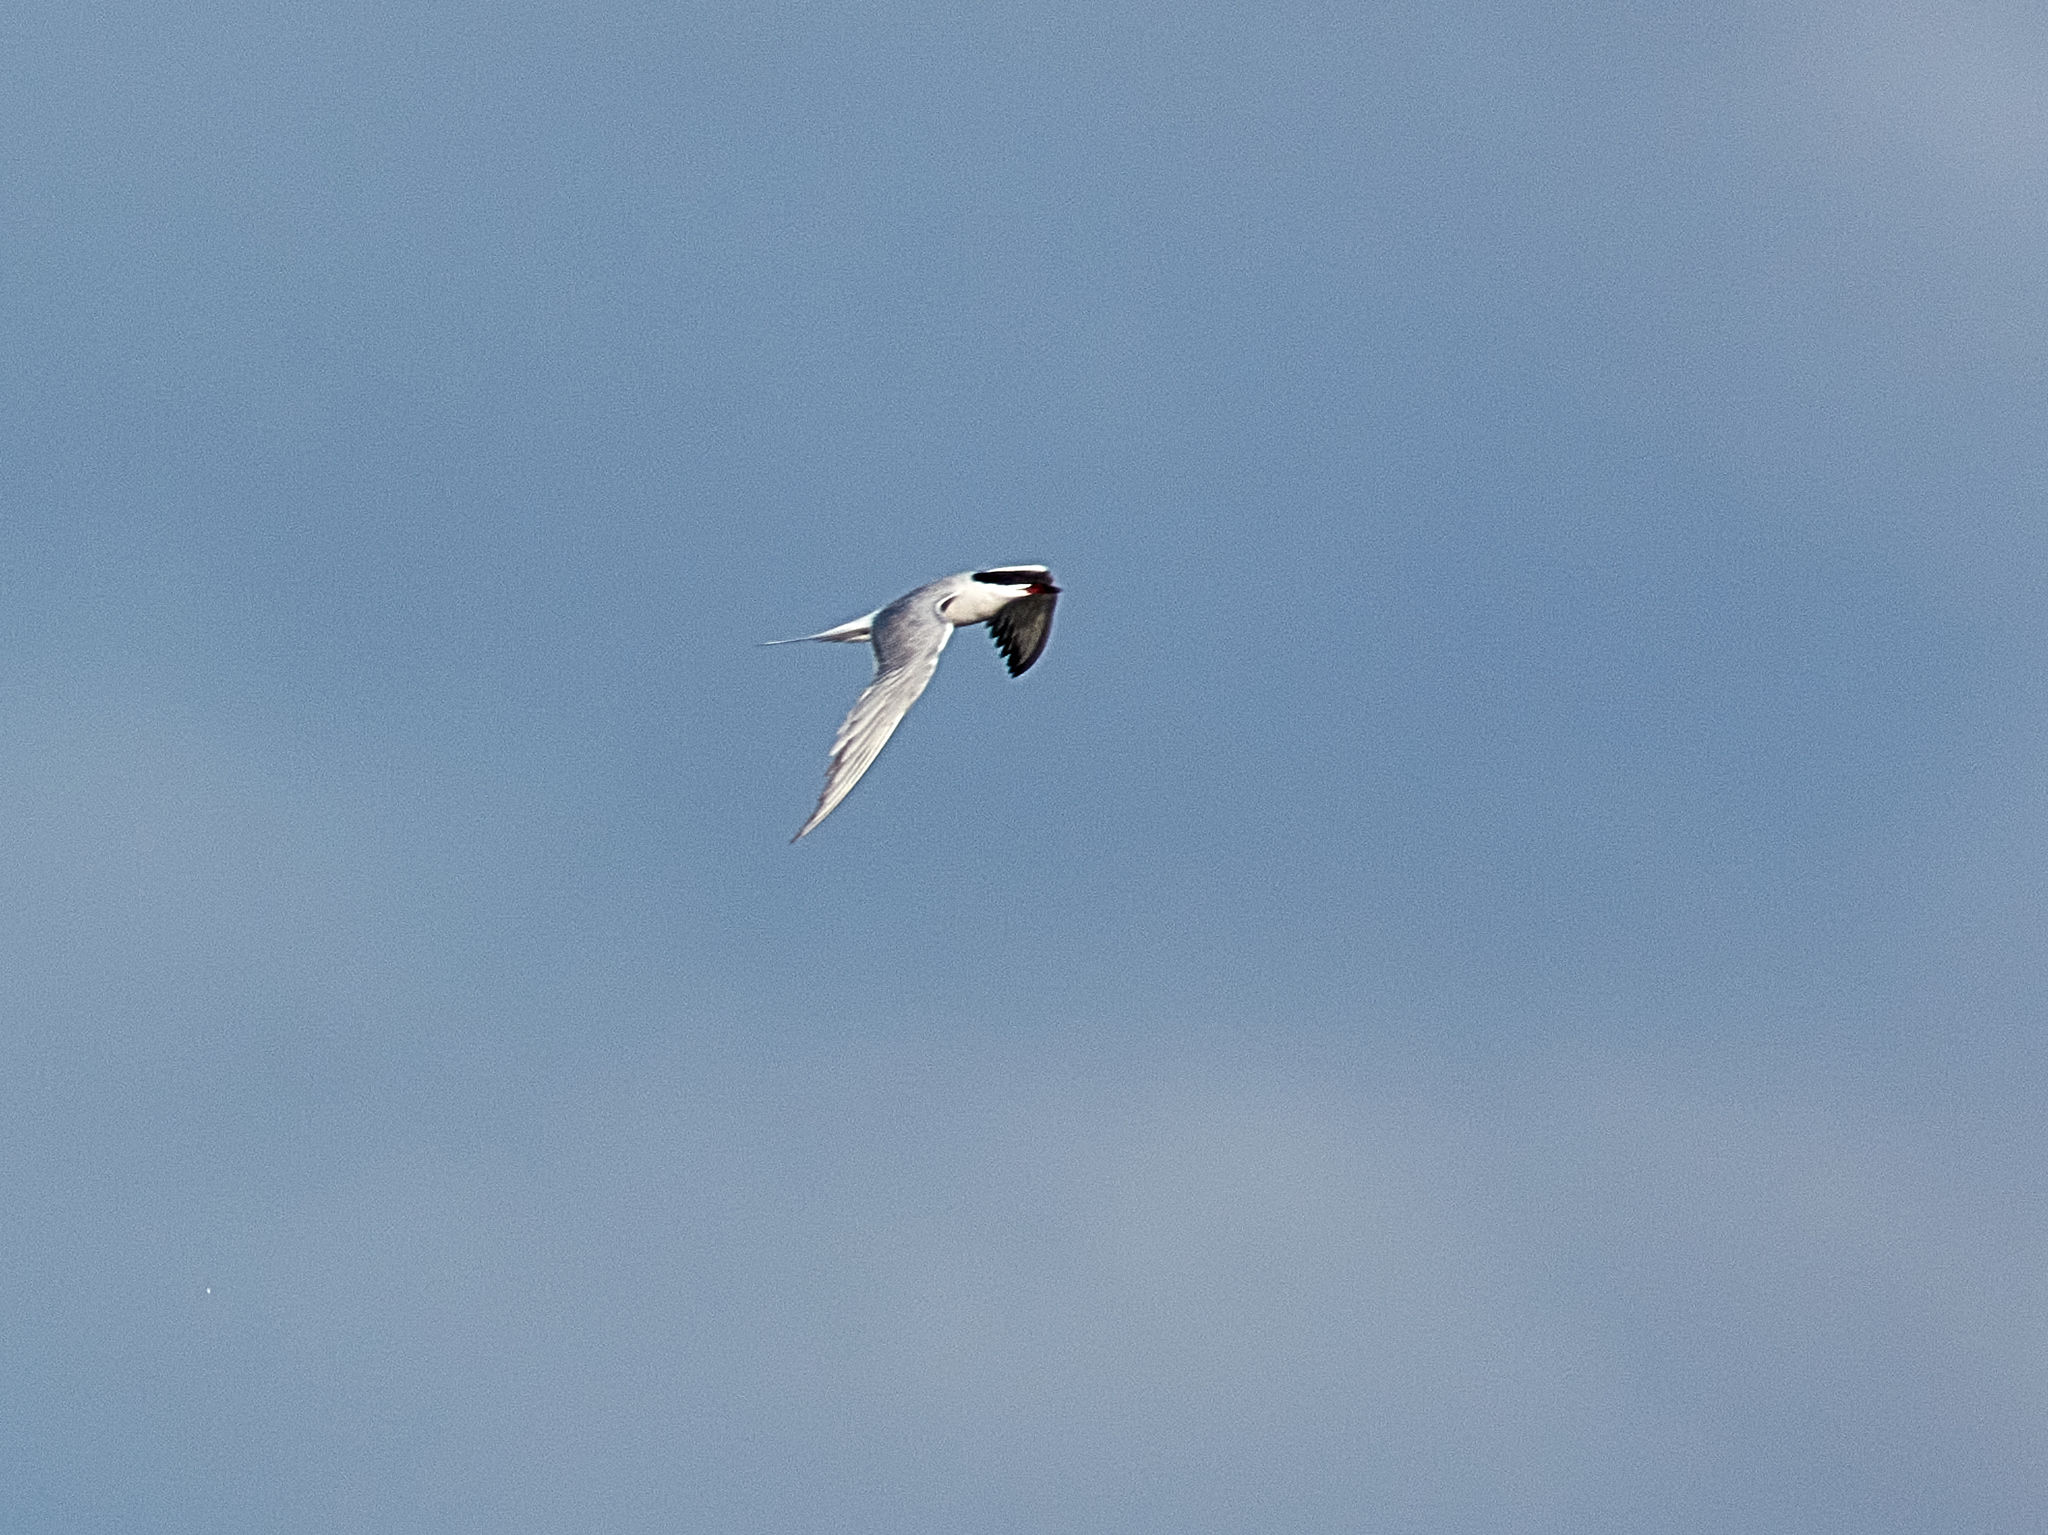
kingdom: Animalia
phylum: Chordata
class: Aves
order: Charadriiformes
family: Laridae
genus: Sterna
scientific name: Sterna hirundo
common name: Common tern
